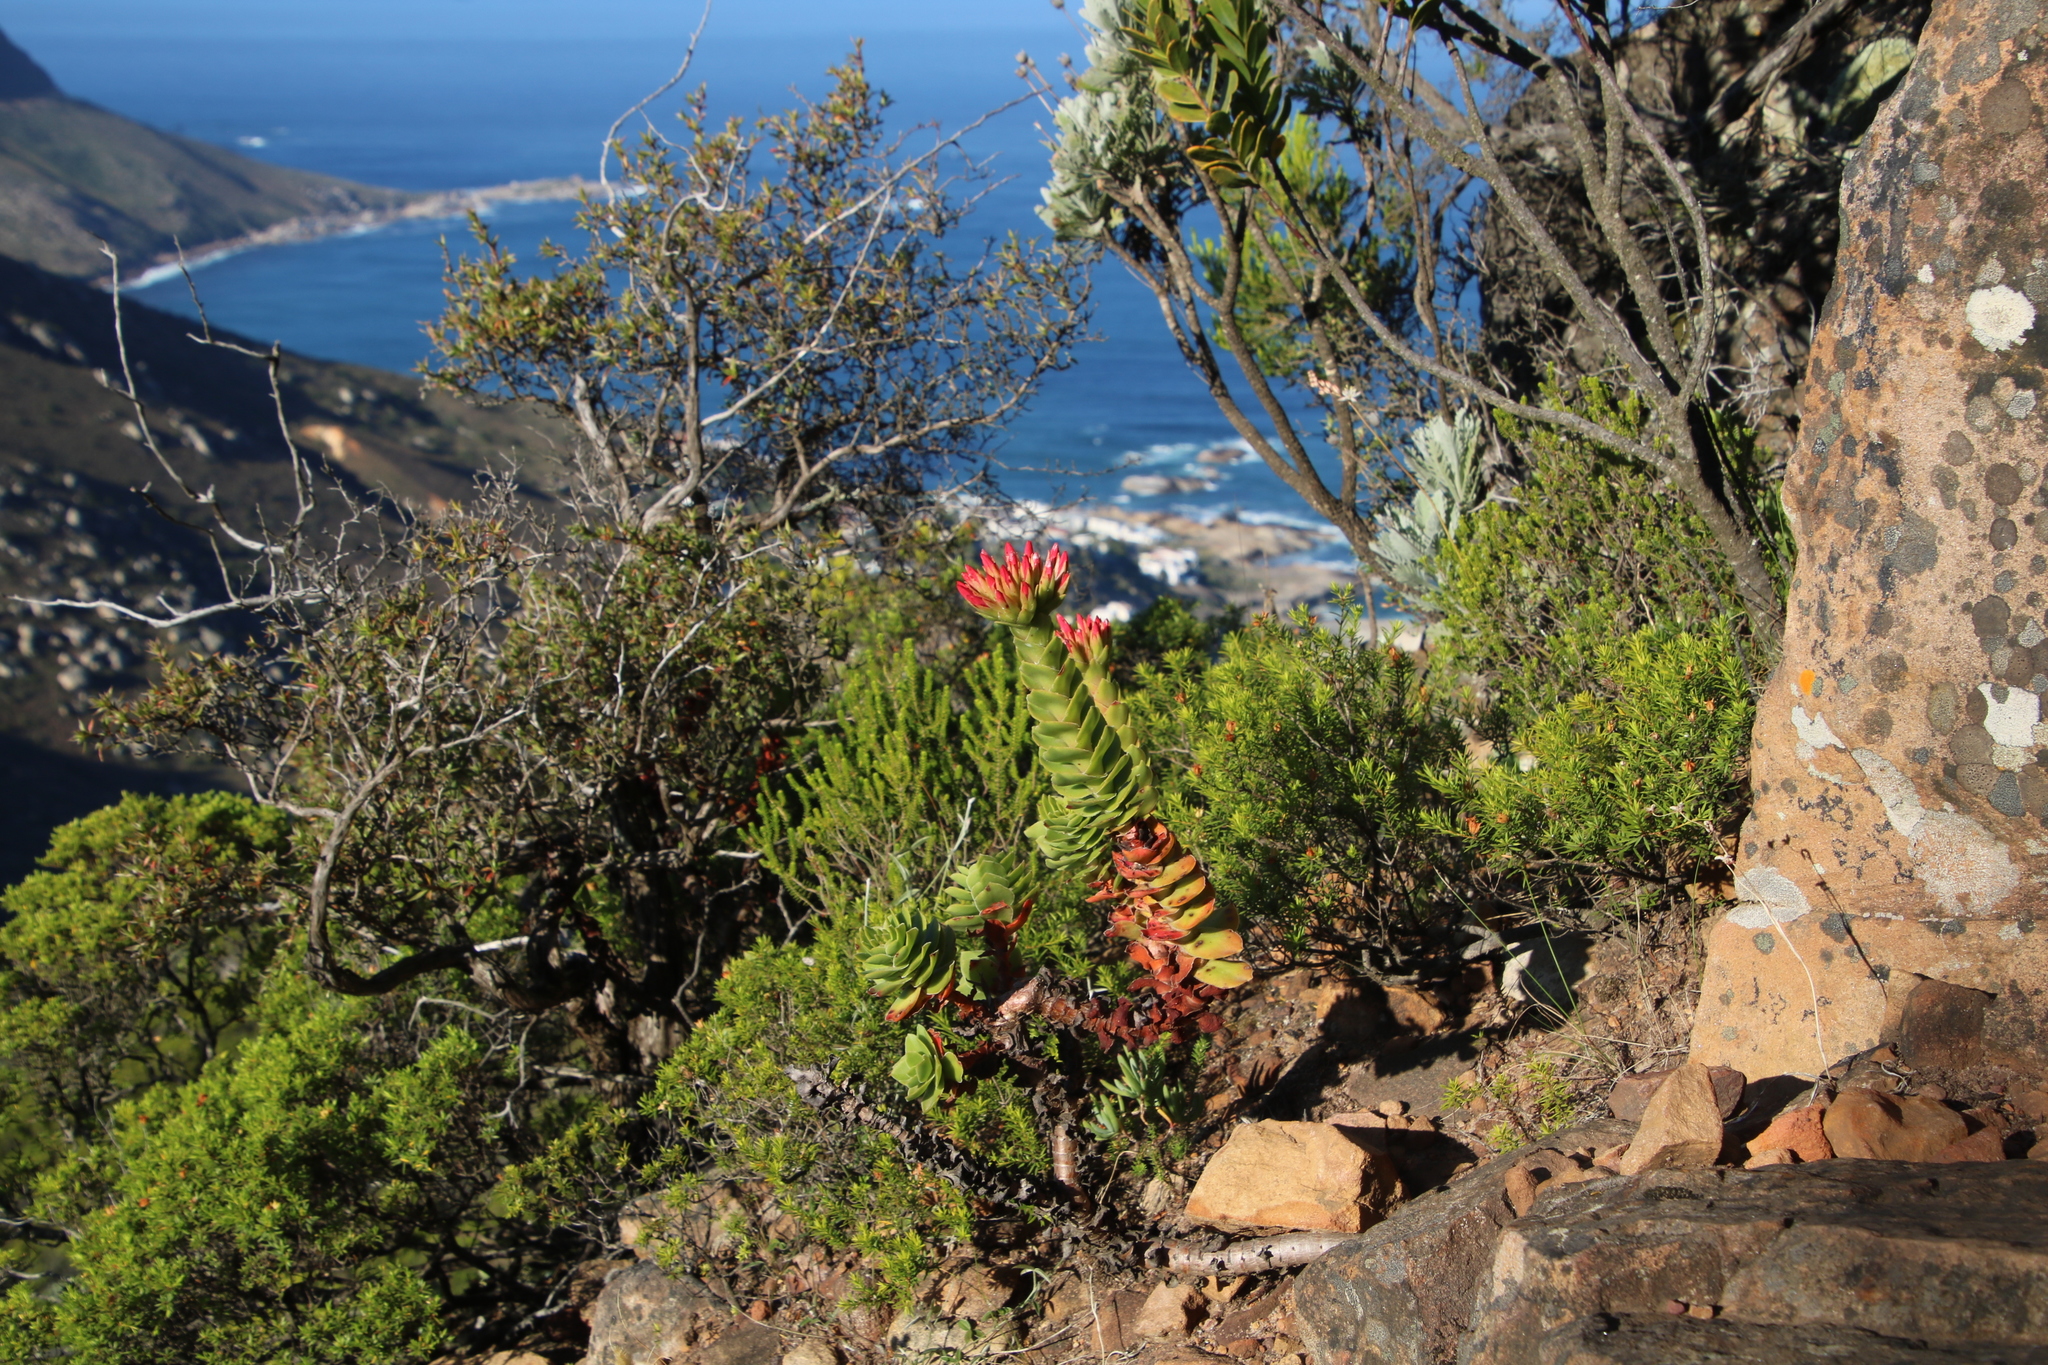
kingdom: Plantae
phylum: Tracheophyta
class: Magnoliopsida
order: Saxifragales
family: Crassulaceae
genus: Crassula
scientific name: Crassula coccinea
